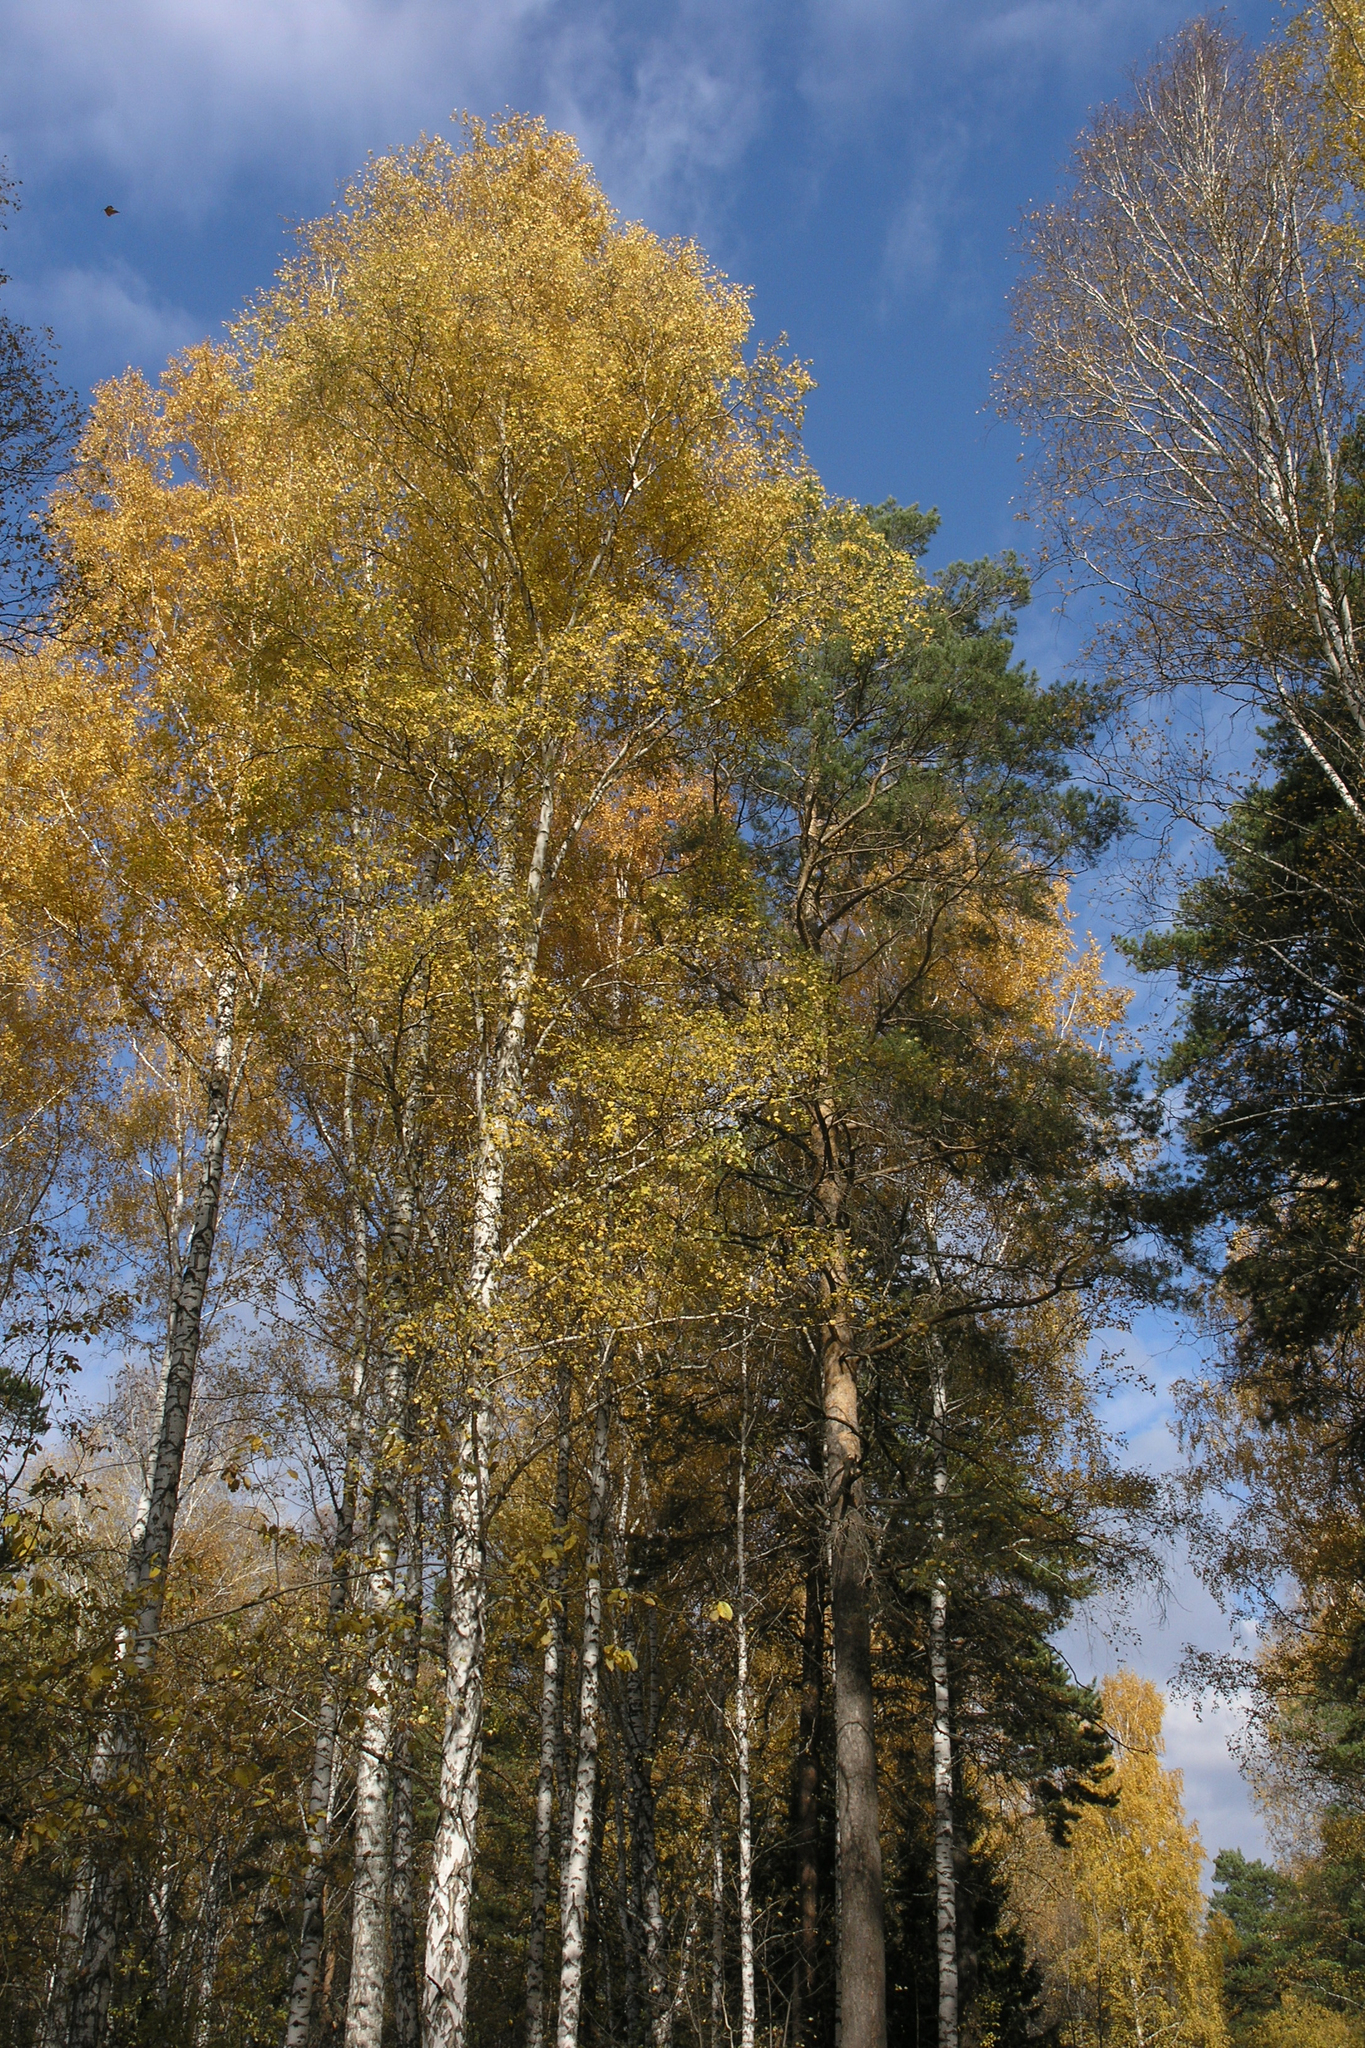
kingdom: Plantae
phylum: Tracheophyta
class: Pinopsida
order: Pinales
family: Pinaceae
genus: Pinus
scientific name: Pinus sylvestris
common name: Scots pine
